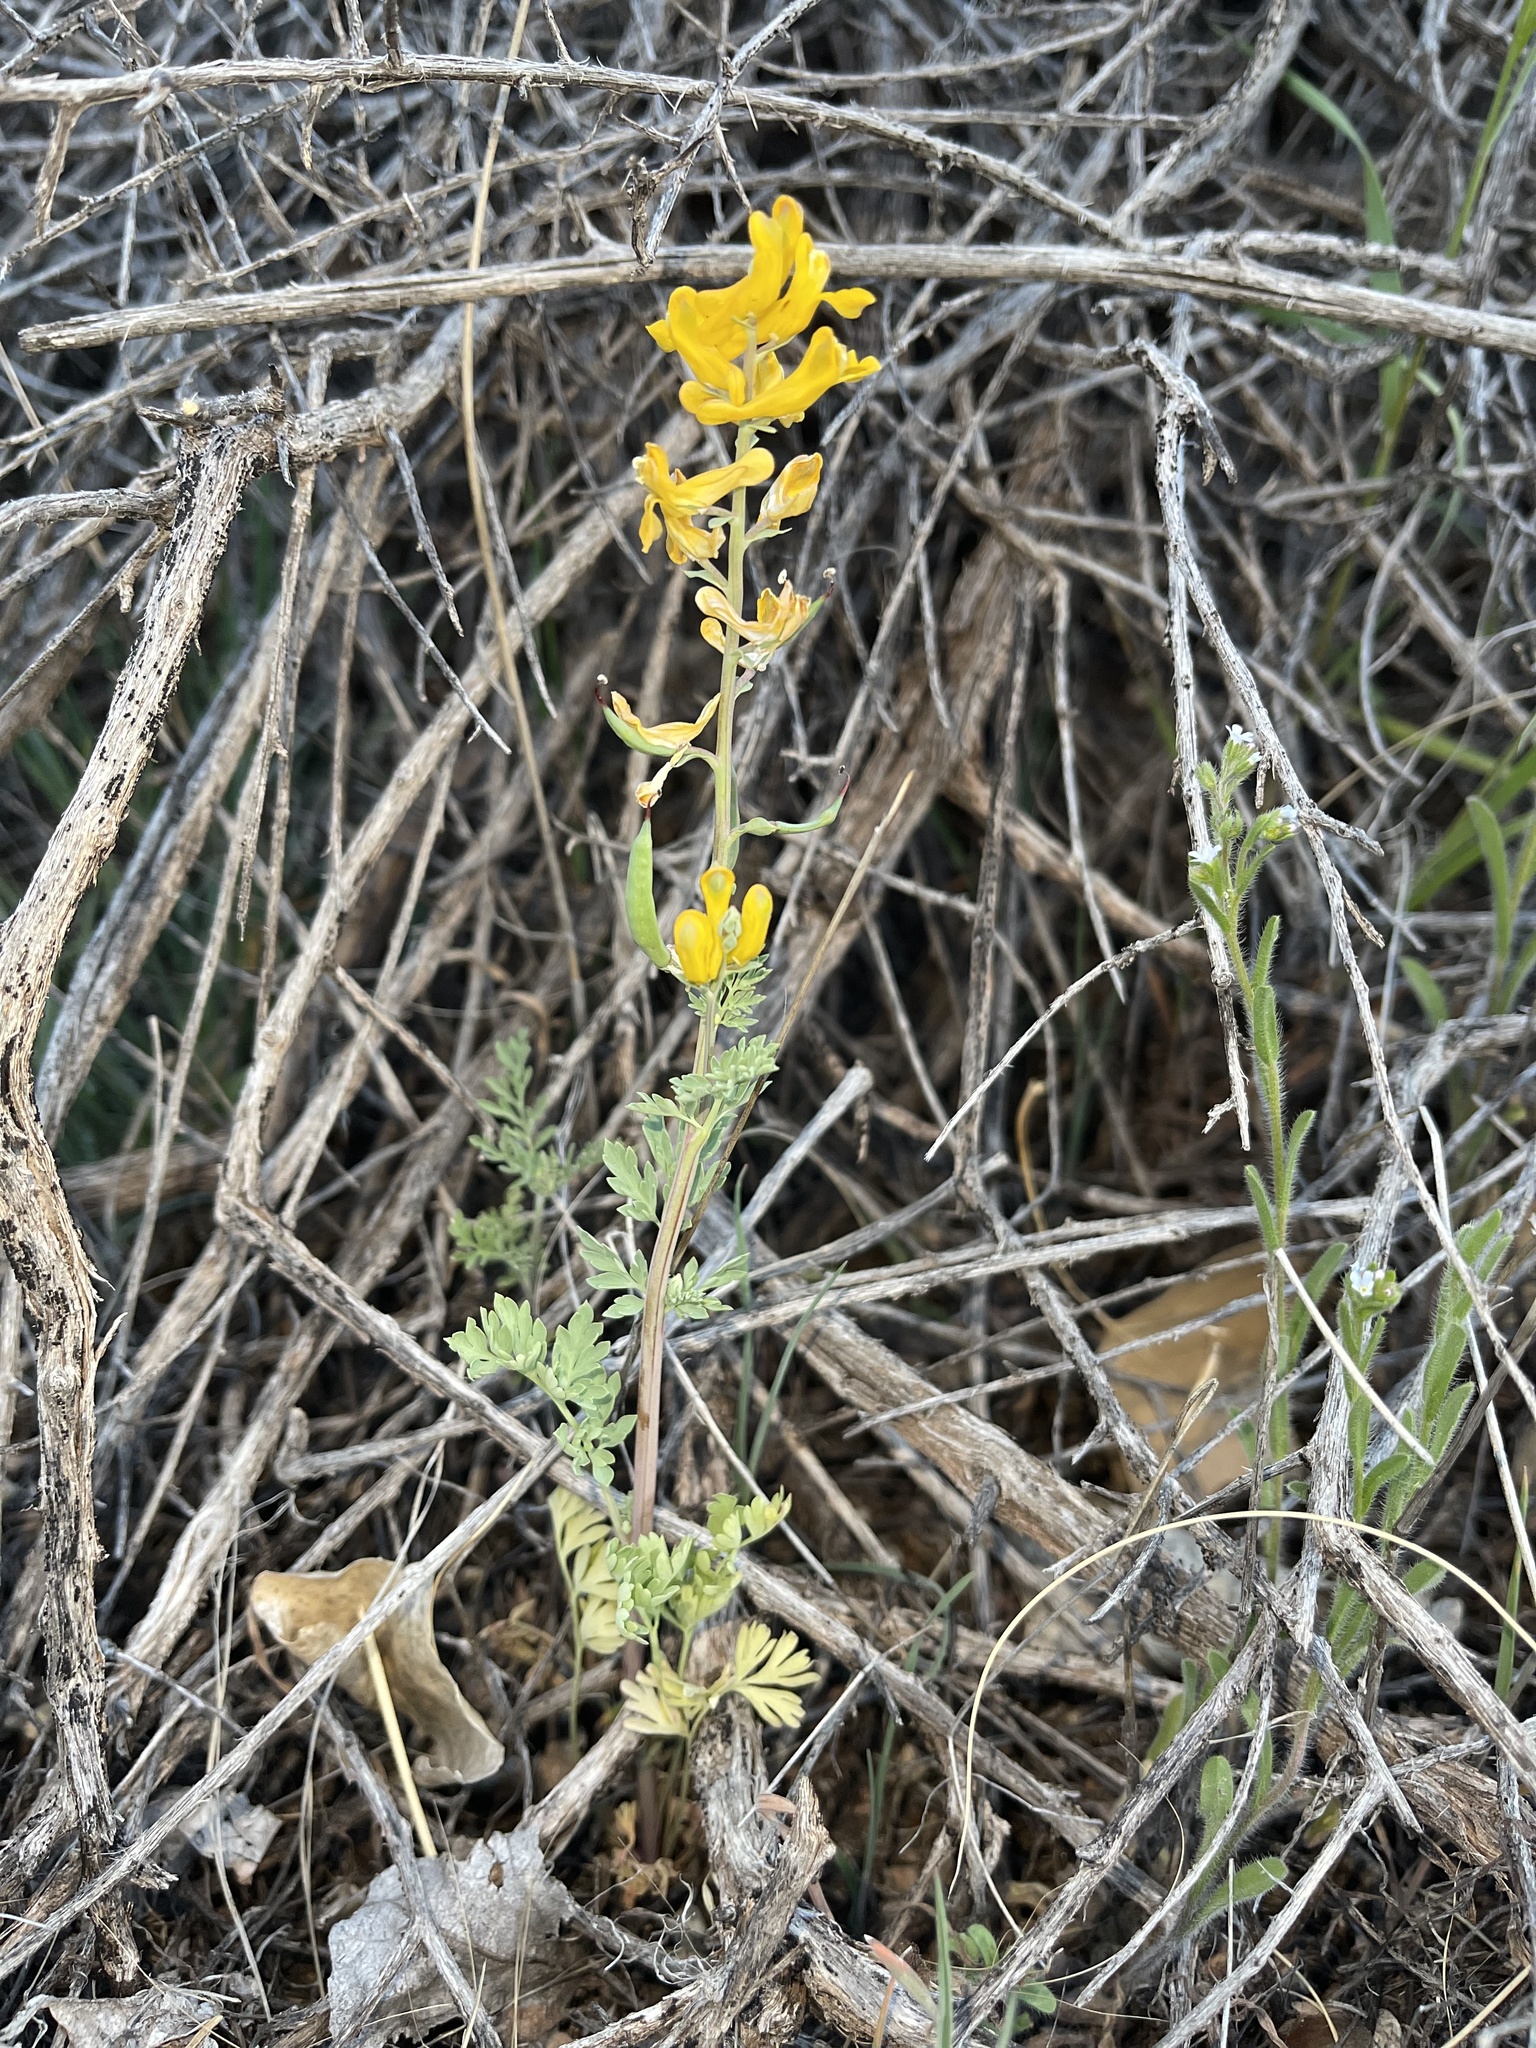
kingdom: Plantae
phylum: Tracheophyta
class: Magnoliopsida
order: Ranunculales
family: Papaveraceae
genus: Corydalis
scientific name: Corydalis aurea
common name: Golden corydalis
